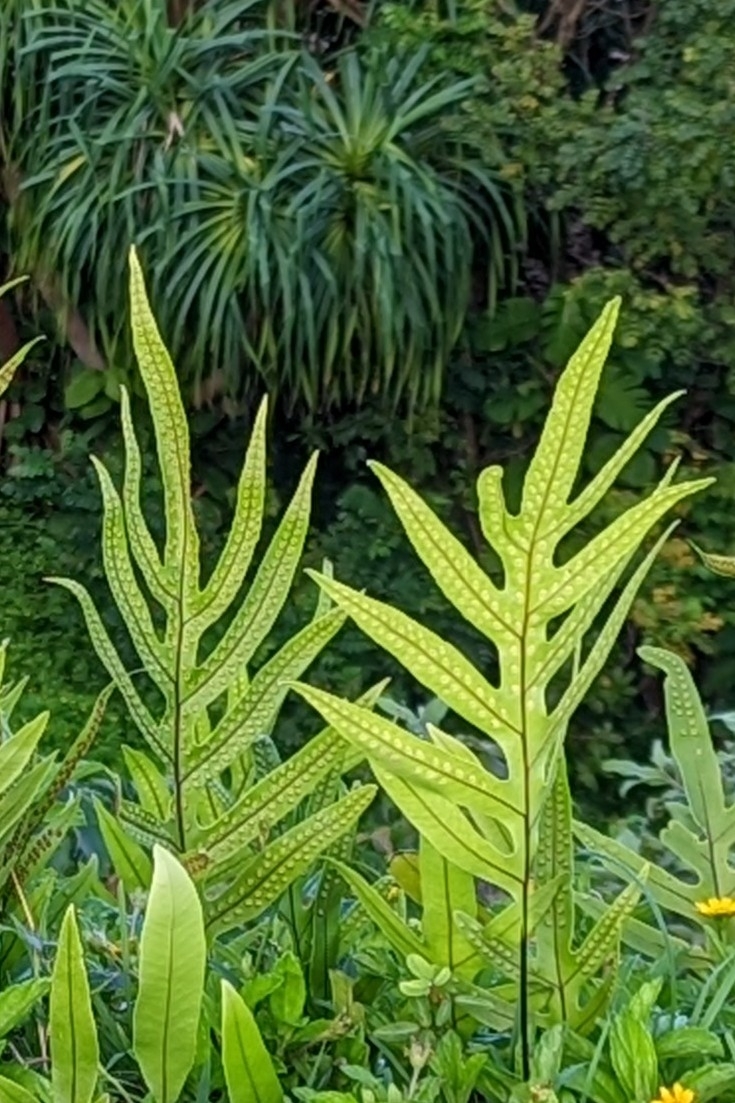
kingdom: Plantae
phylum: Tracheophyta
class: Polypodiopsida
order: Polypodiales
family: Polypodiaceae
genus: Microsorum
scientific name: Microsorum grossum
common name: Musk fern
